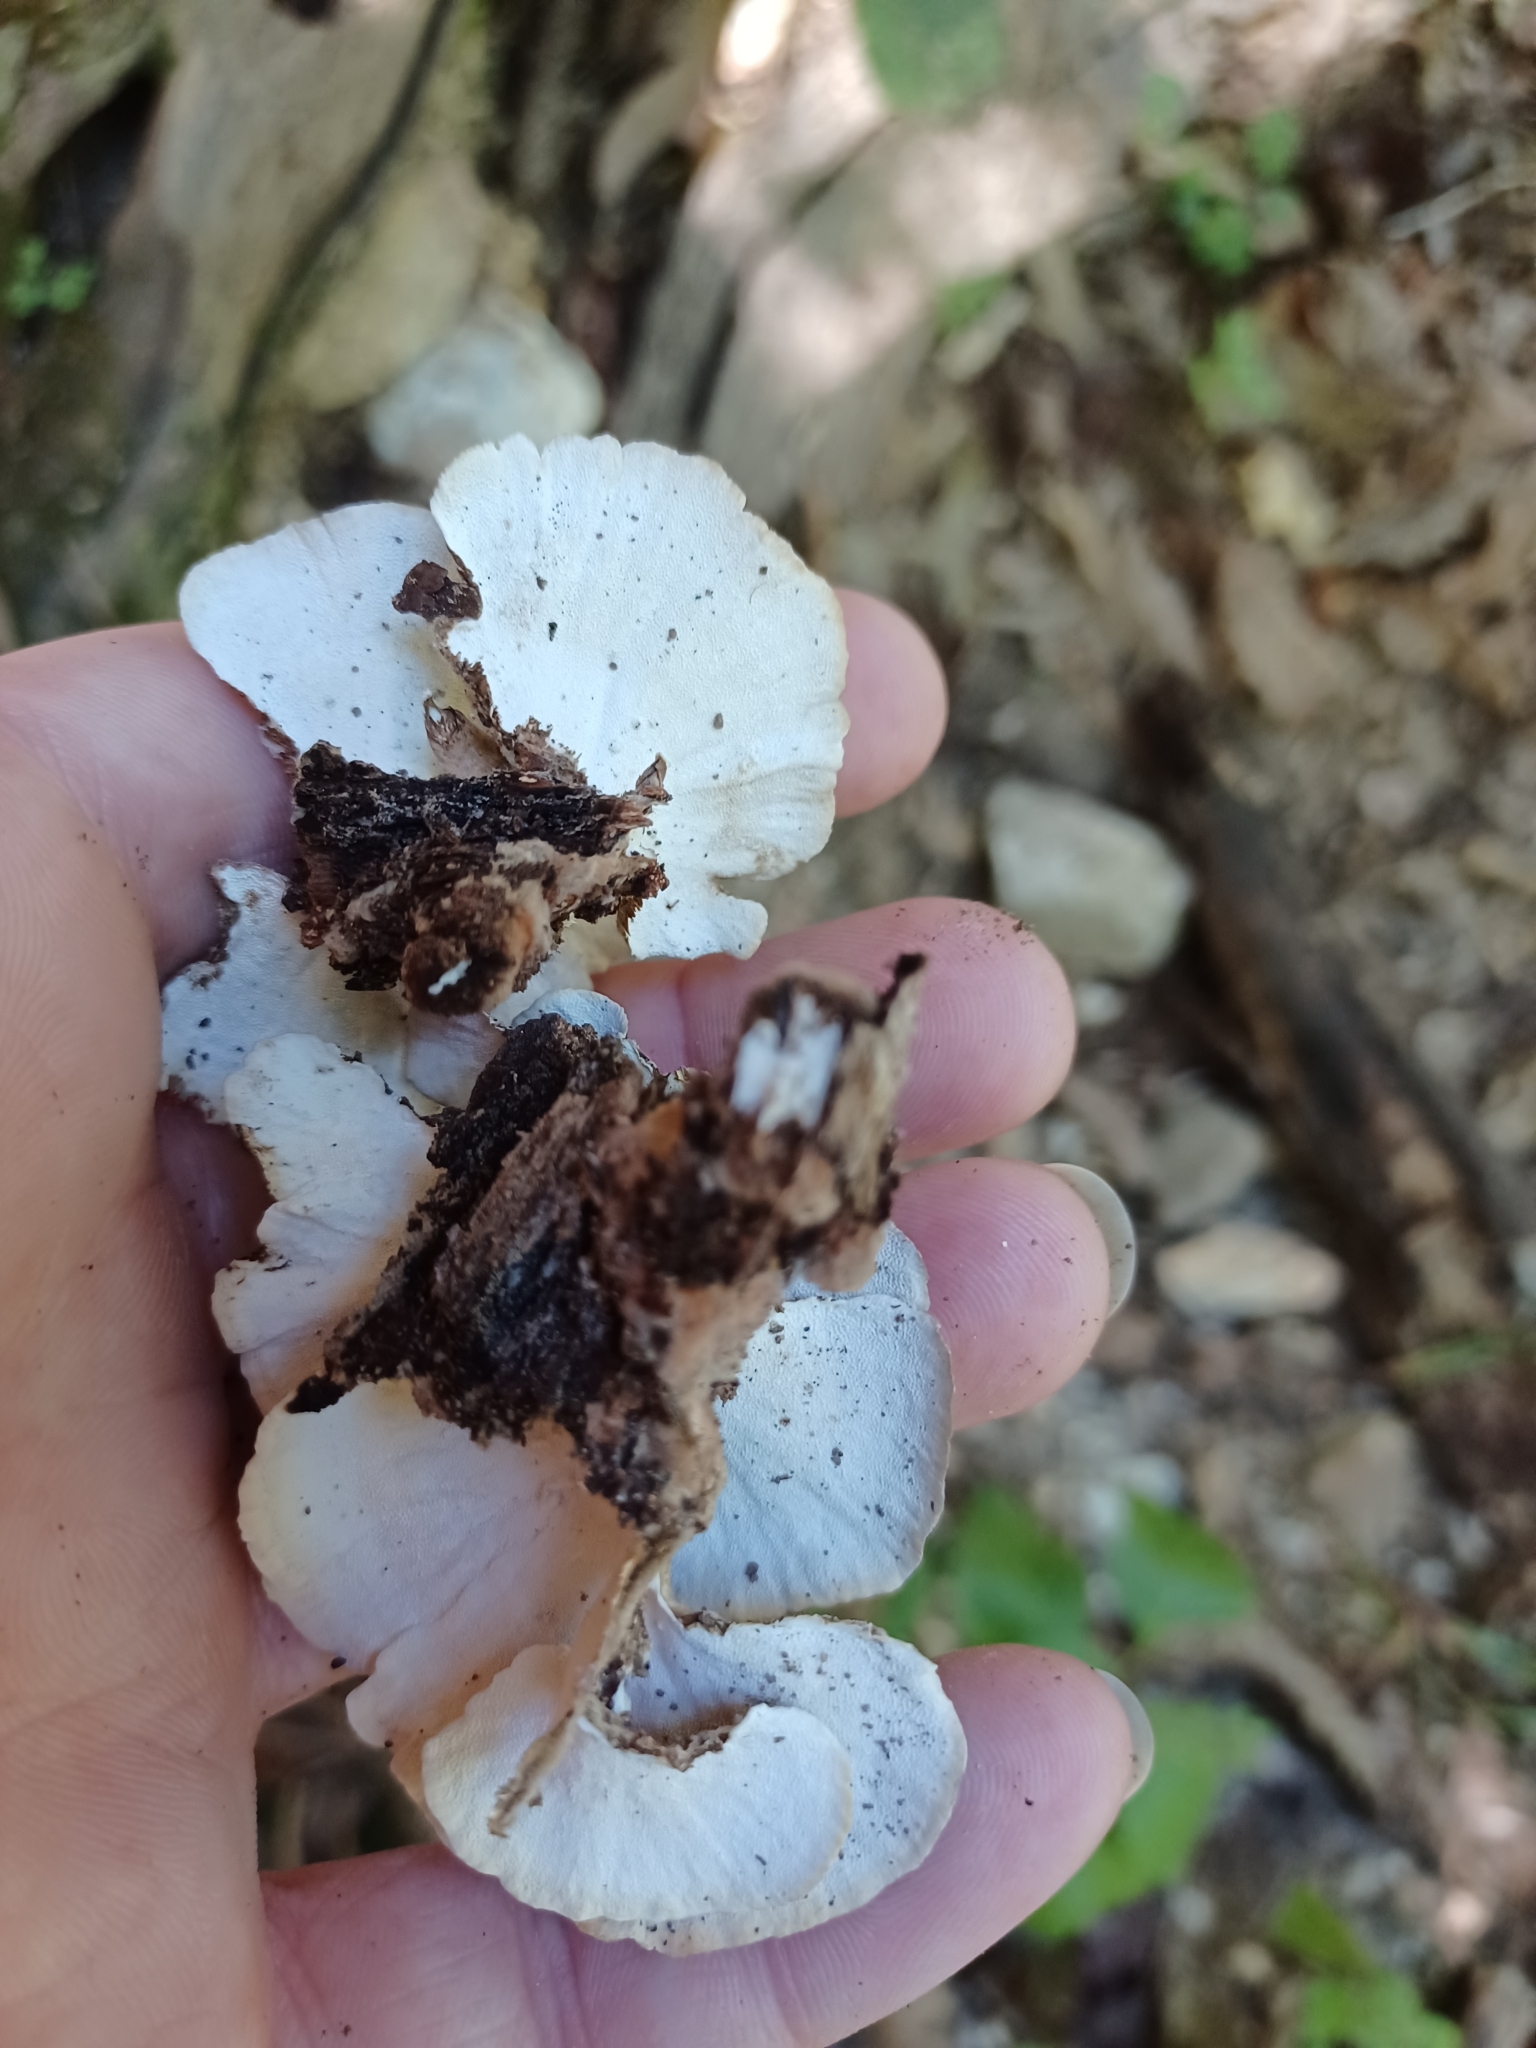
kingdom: Fungi
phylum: Basidiomycota
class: Agaricomycetes
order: Polyporales
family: Polyporaceae
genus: Trametes
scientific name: Trametes versicolor
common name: Turkeytail
